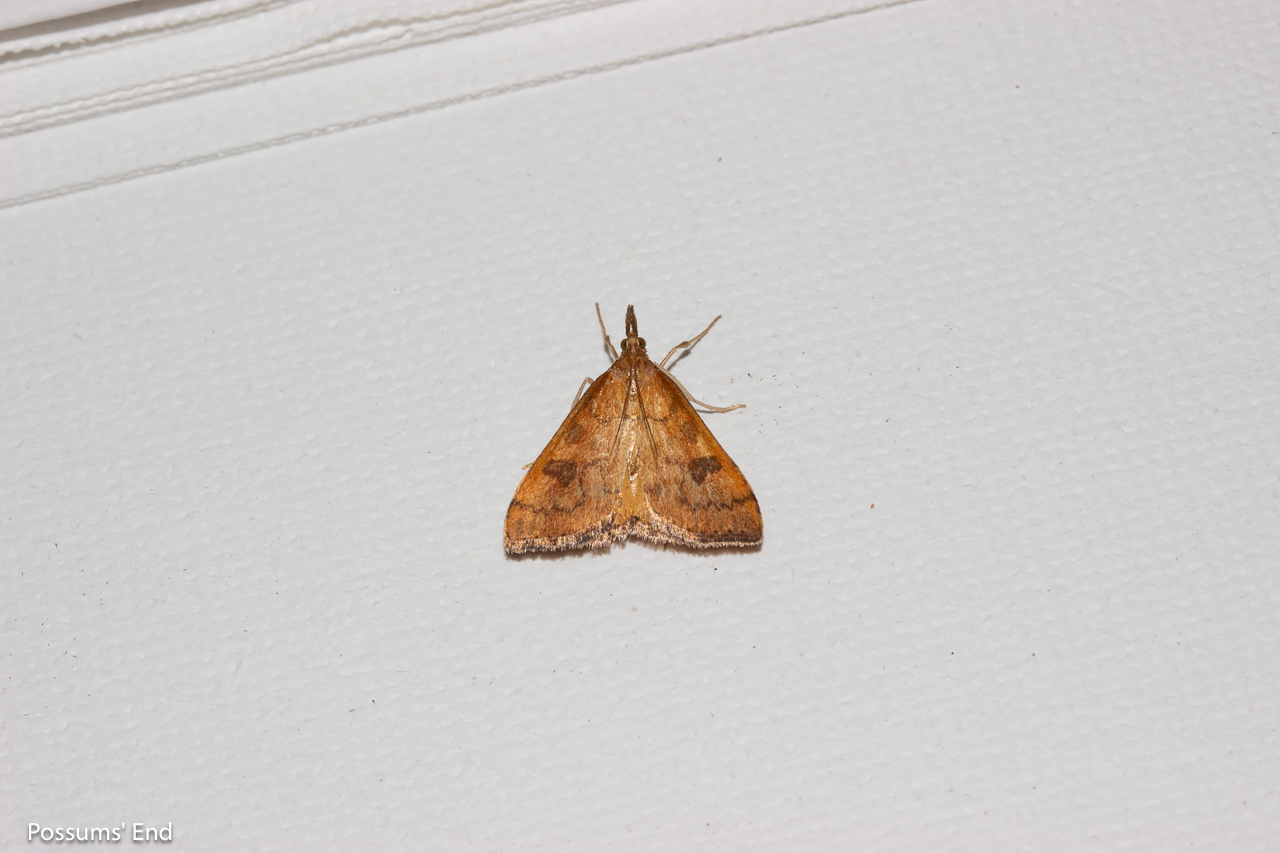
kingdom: Animalia
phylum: Arthropoda
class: Insecta
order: Lepidoptera
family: Crambidae
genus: Udea
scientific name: Udea Mnesictena flavidalis
